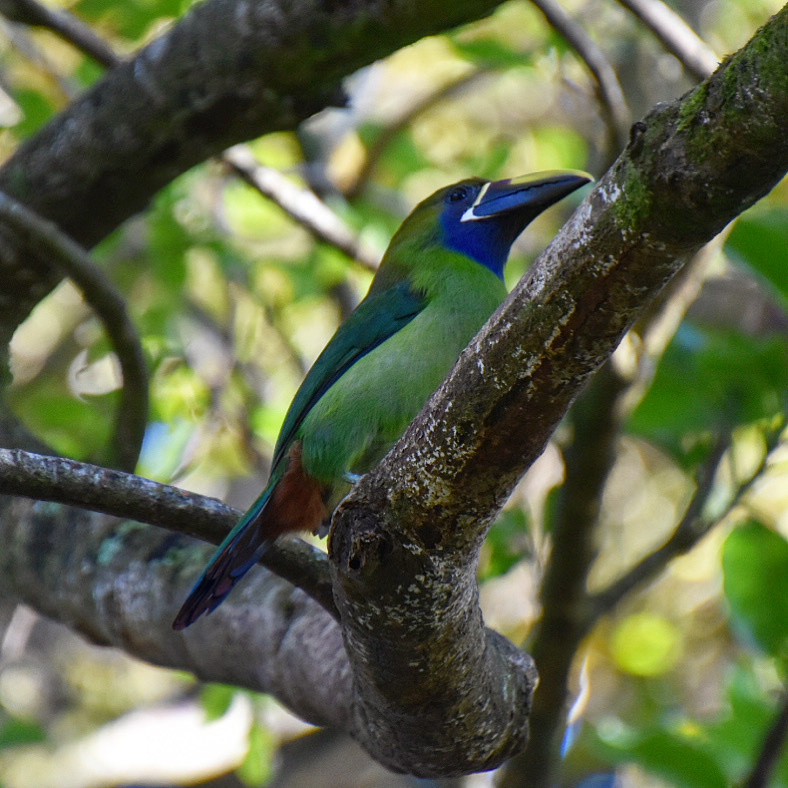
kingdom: Animalia
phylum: Chordata
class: Aves
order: Piciformes
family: Ramphastidae
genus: Aulacorhynchus
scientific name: Aulacorhynchus prasinus
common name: Emerald toucanet
